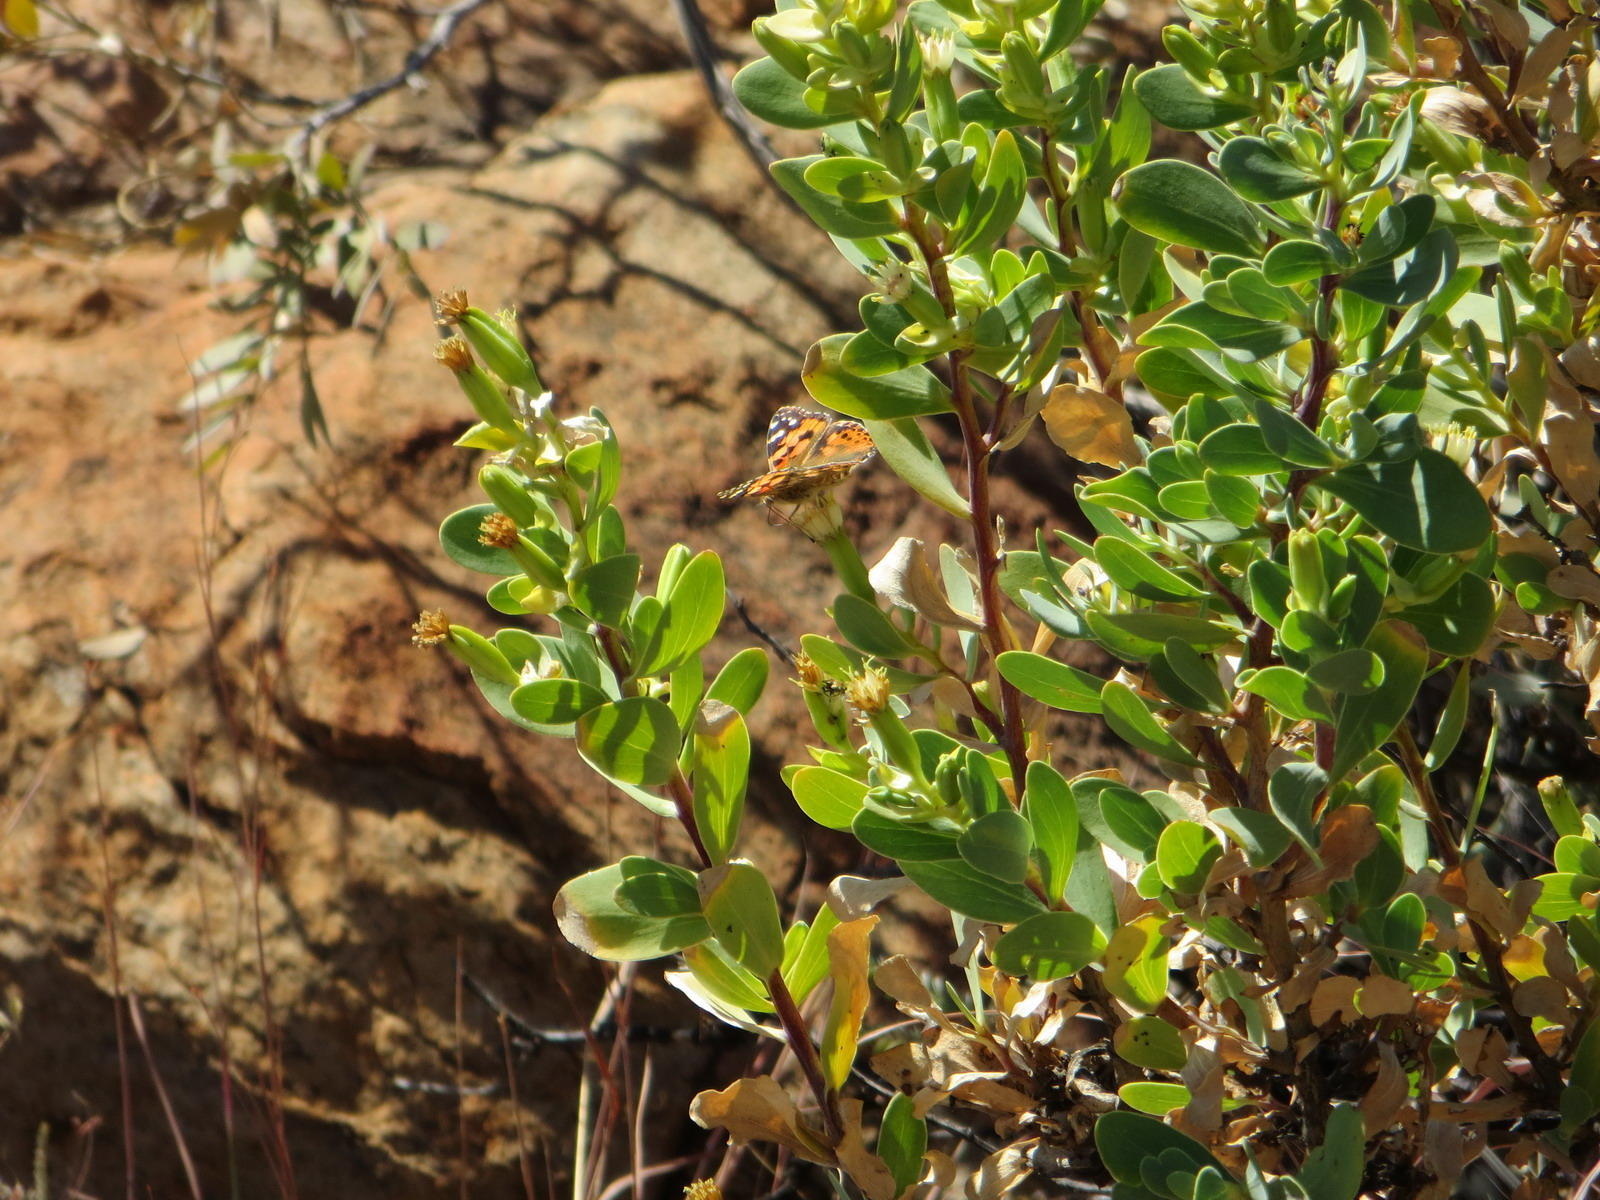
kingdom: Plantae
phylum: Tracheophyta
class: Magnoliopsida
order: Asterales
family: Asteraceae
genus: Lopholaena
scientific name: Lopholaena coriifolia
